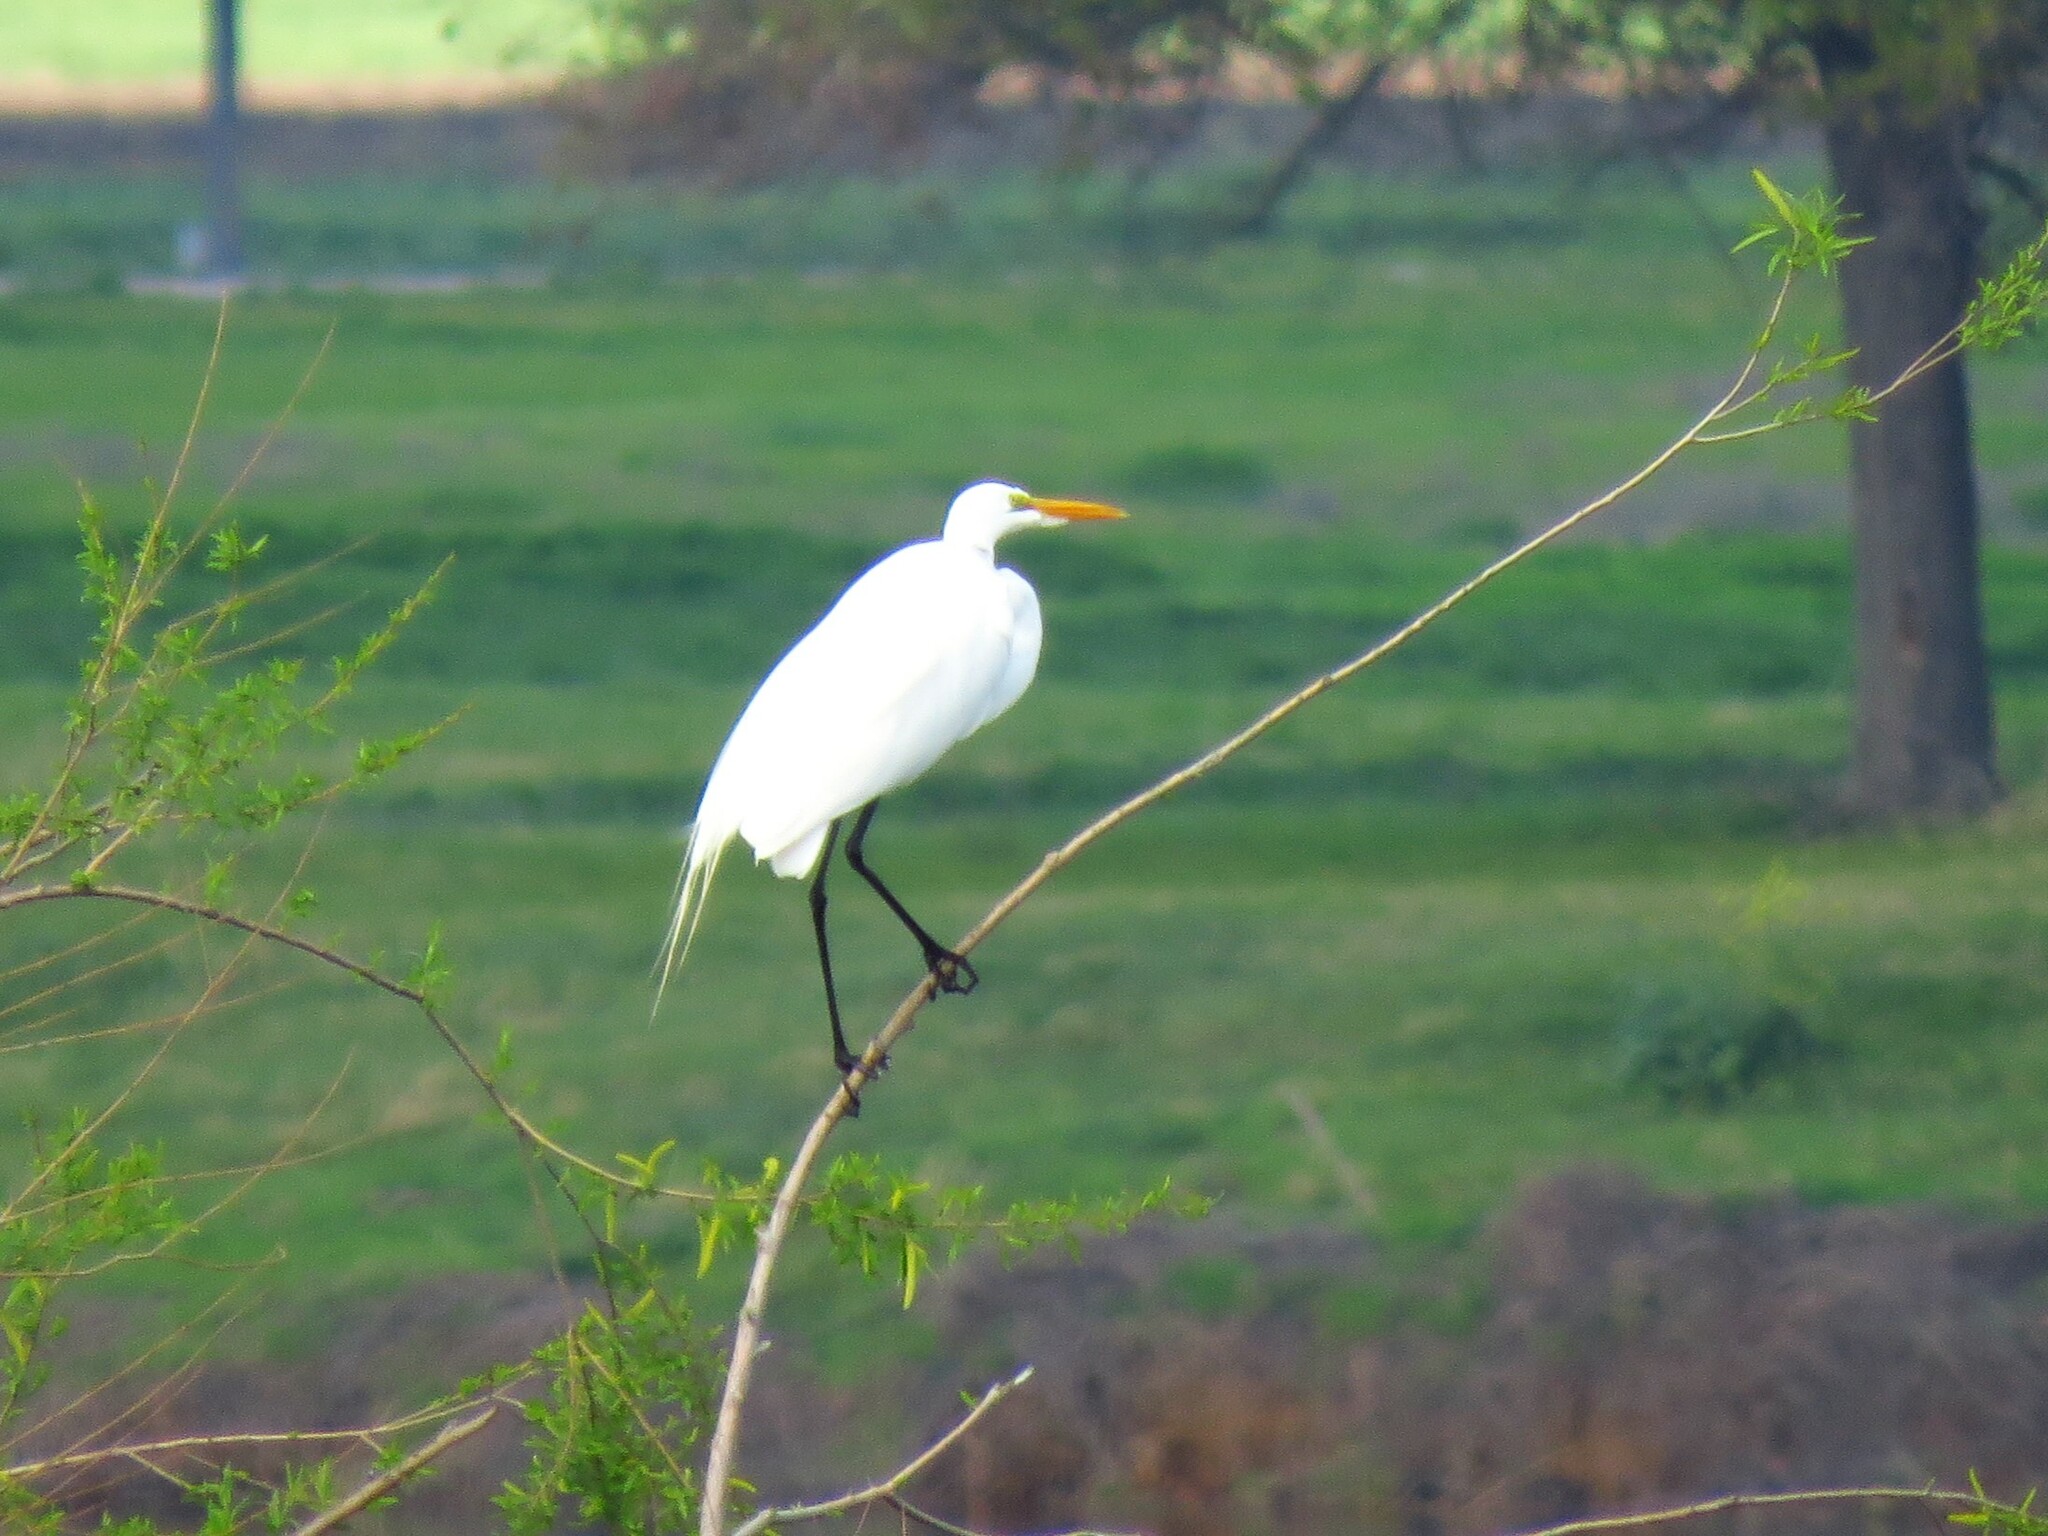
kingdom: Animalia
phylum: Chordata
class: Aves
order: Pelecaniformes
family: Ardeidae
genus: Ardea
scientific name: Ardea alba
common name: Great egret
